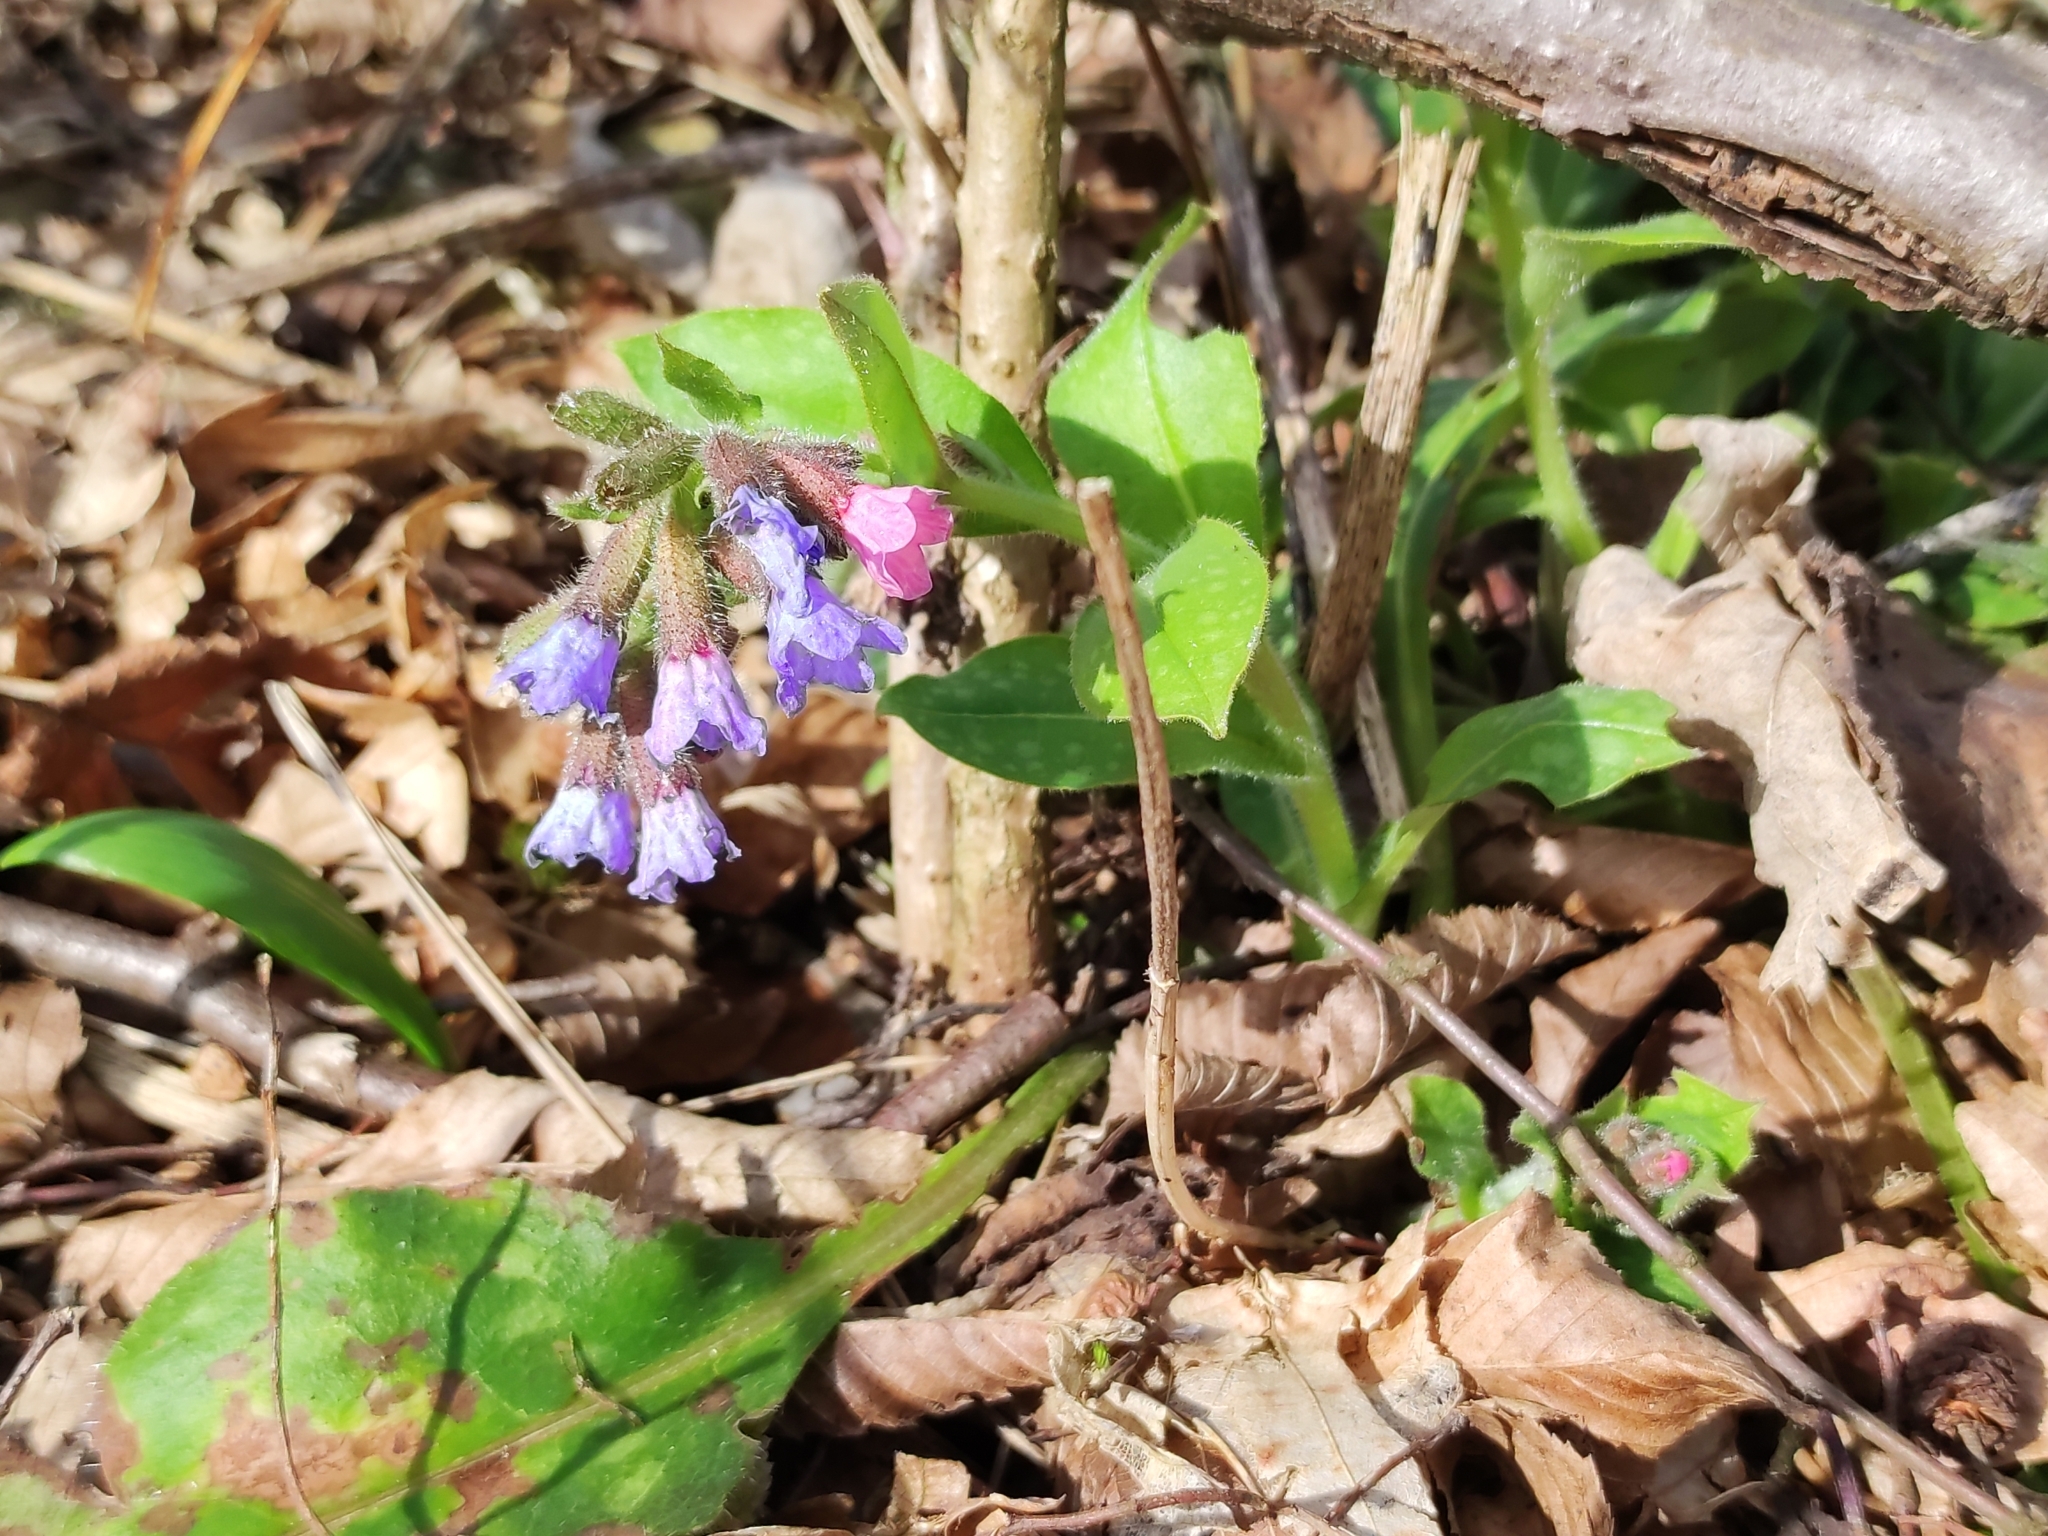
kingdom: Plantae
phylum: Tracheophyta
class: Magnoliopsida
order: Boraginales
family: Boraginaceae
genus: Pulmonaria
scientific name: Pulmonaria officinalis
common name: Lungwort
